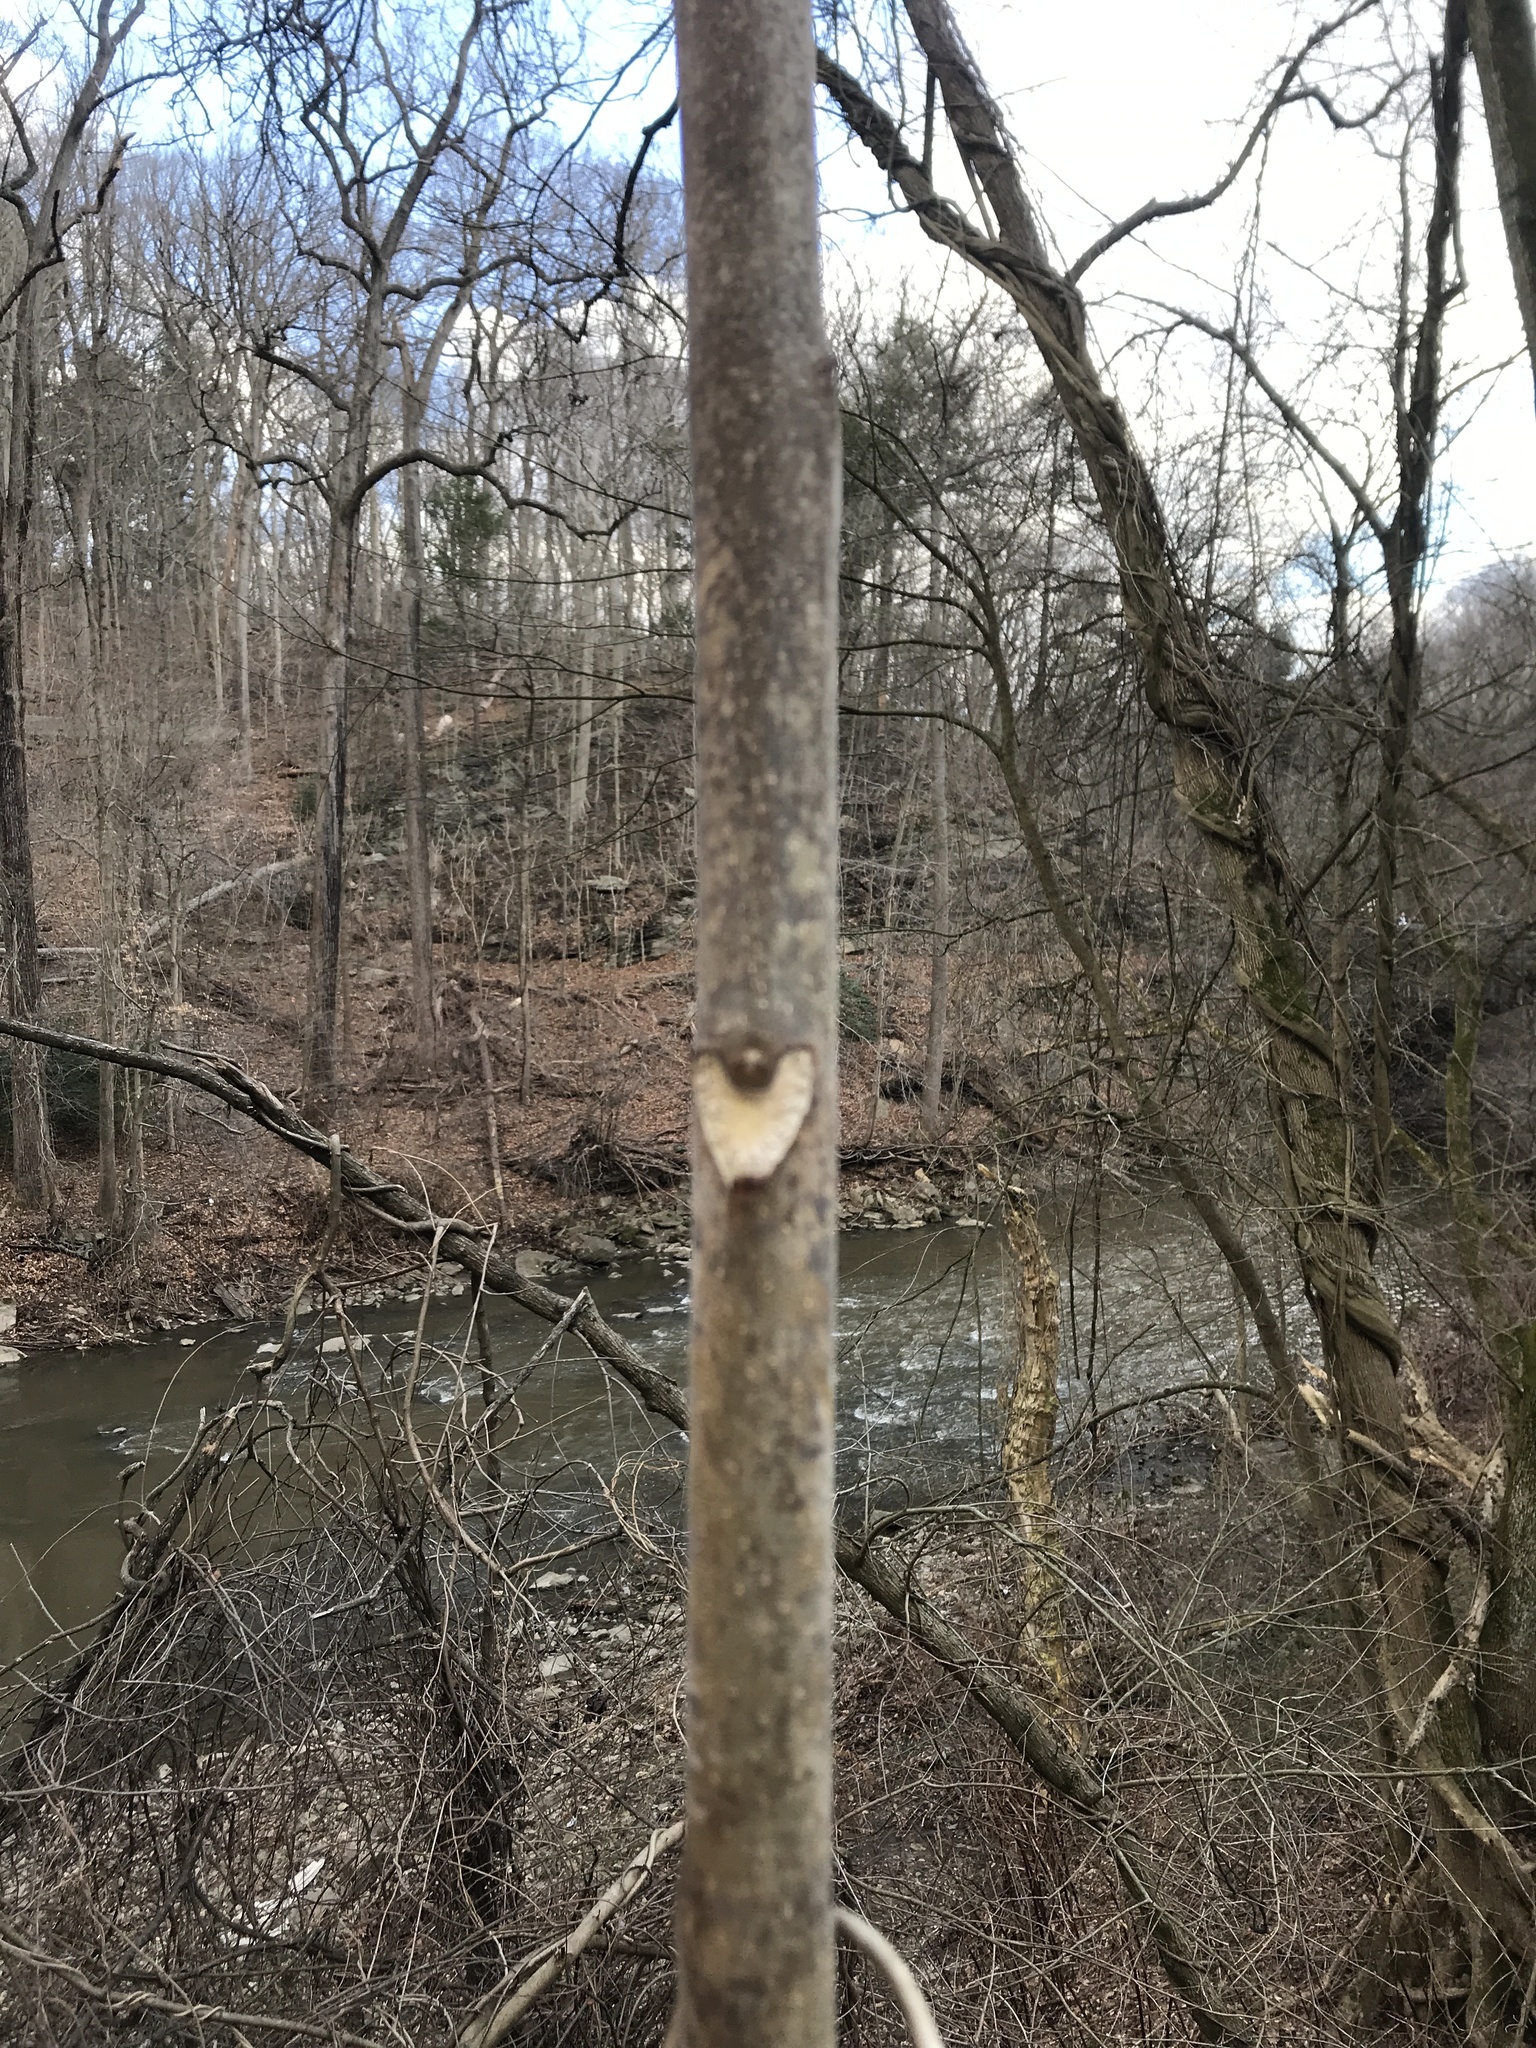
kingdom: Plantae
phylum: Tracheophyta
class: Magnoliopsida
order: Sapindales
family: Simaroubaceae
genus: Ailanthus
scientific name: Ailanthus altissima
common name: Tree-of-heaven
